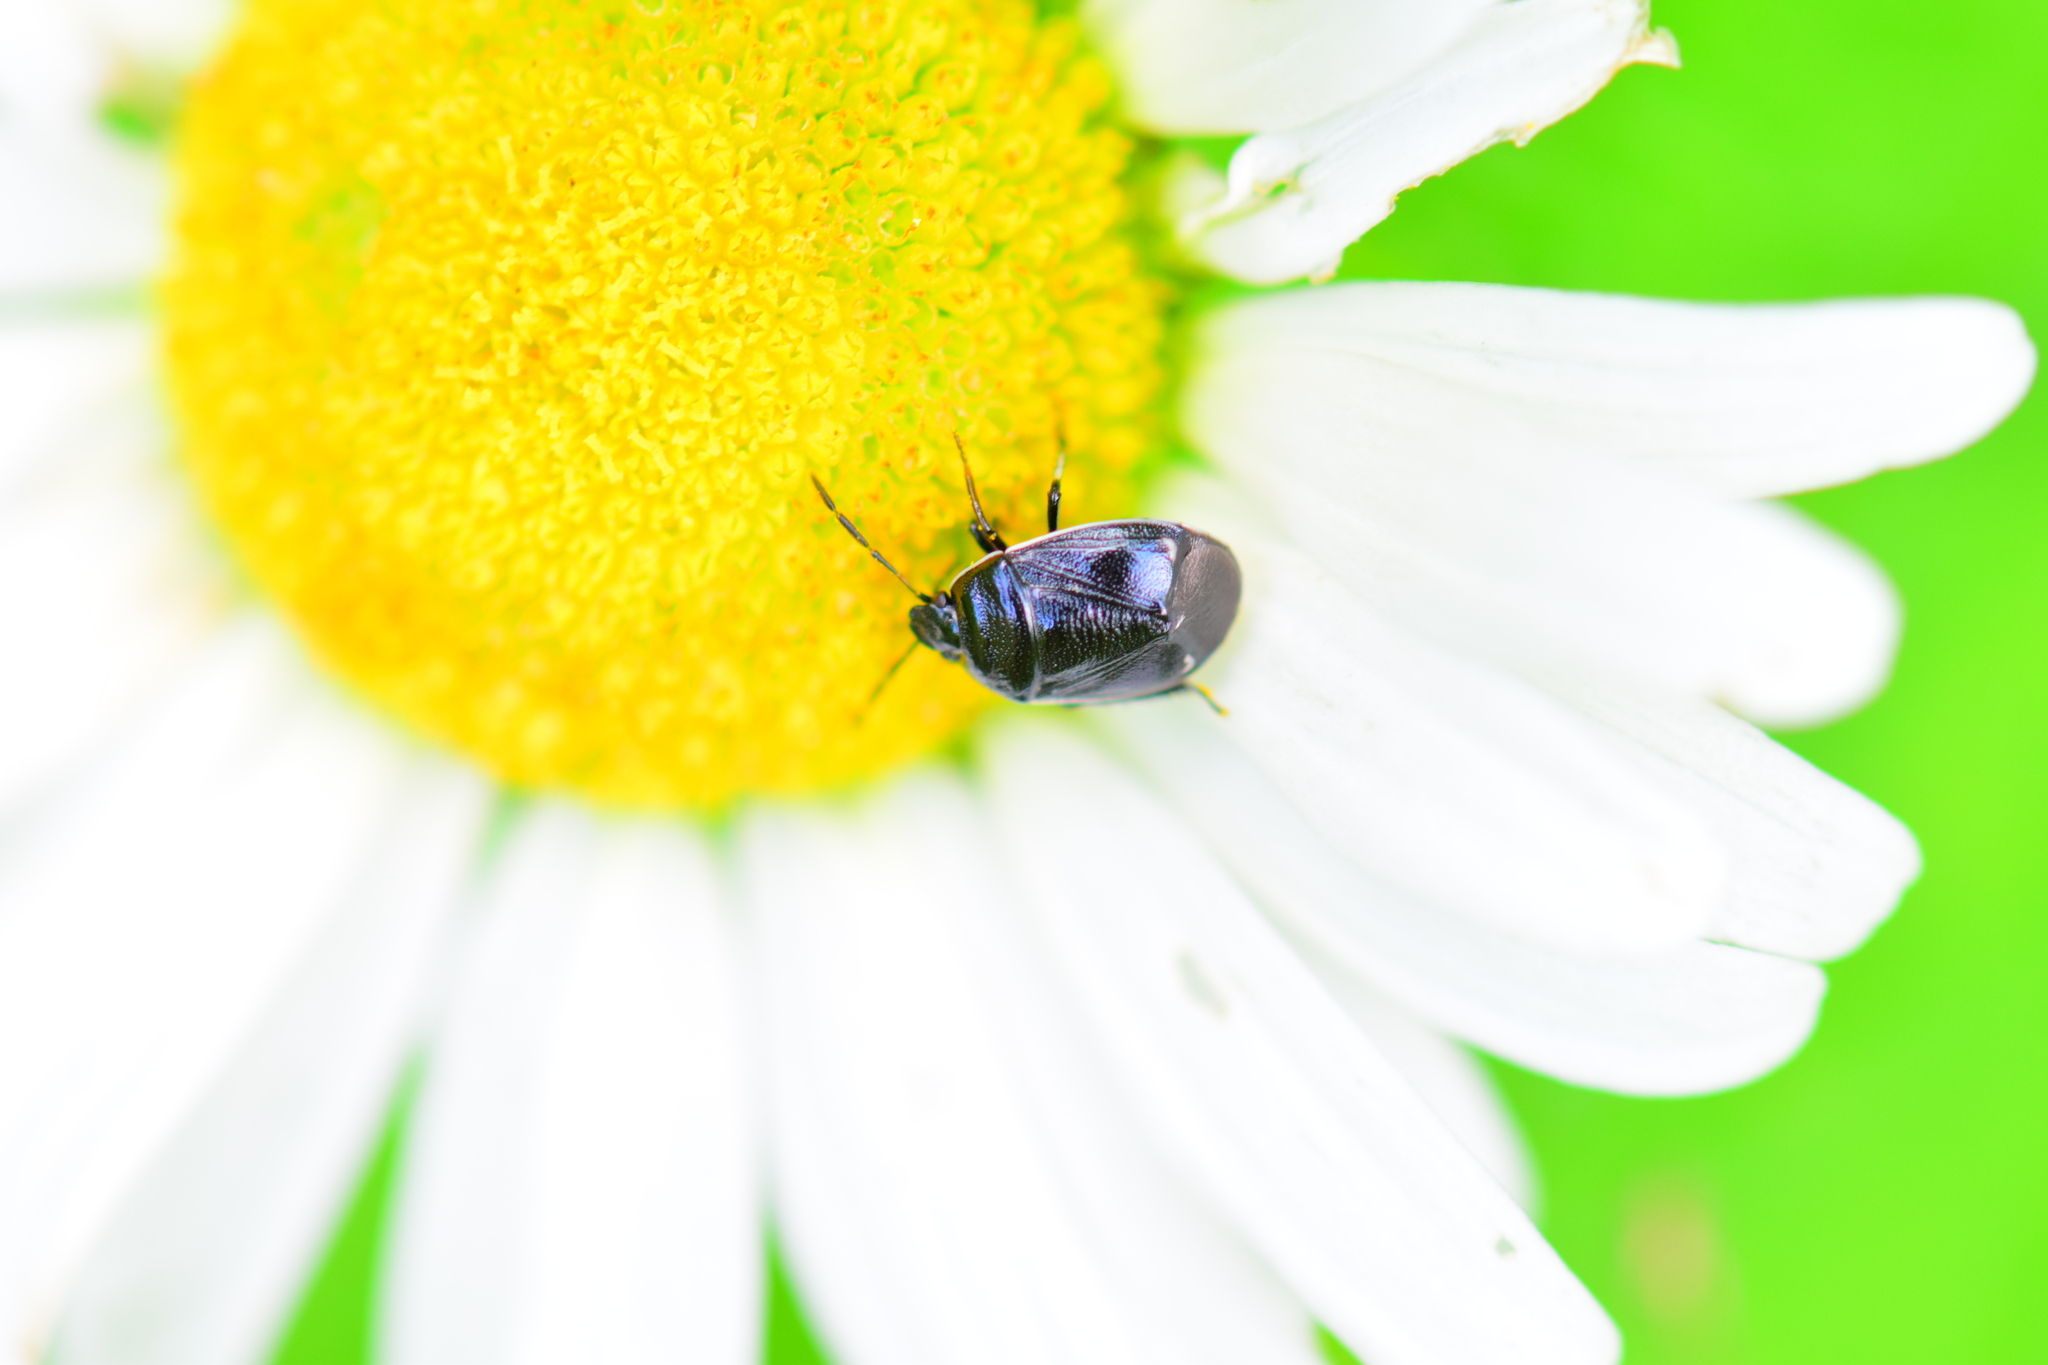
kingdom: Animalia
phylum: Arthropoda
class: Insecta
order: Hemiptera
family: Cydnidae
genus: Sehirus
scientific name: Sehirus cinctus
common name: White-margined burrower bug
